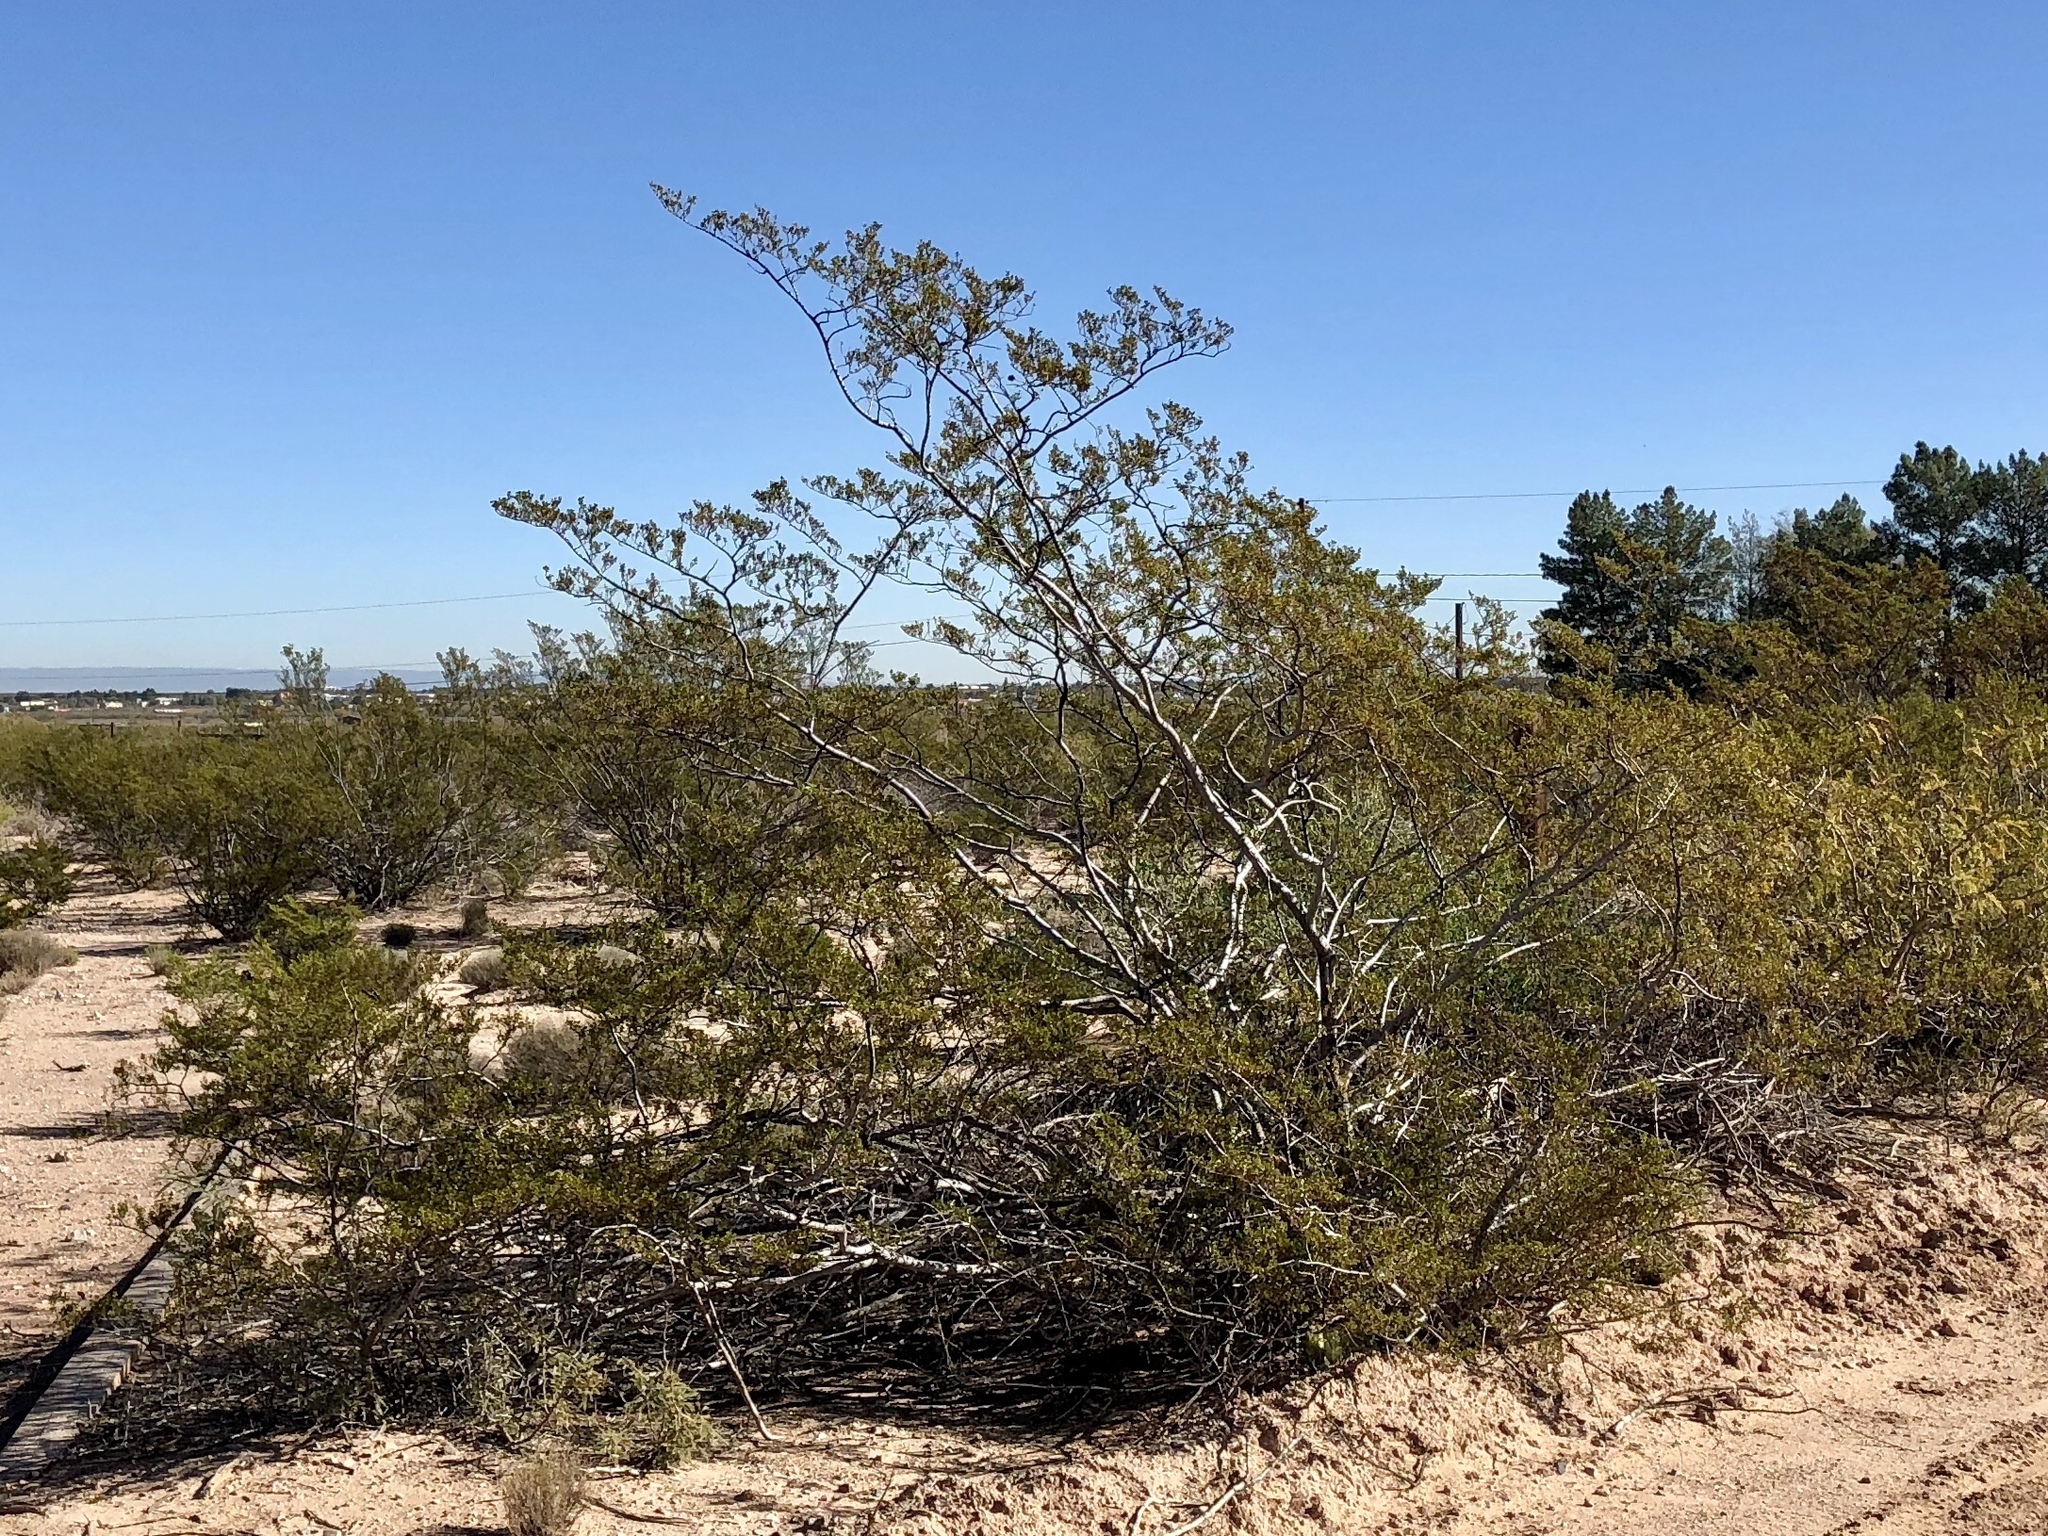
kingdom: Plantae
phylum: Tracheophyta
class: Magnoliopsida
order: Zygophyllales
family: Zygophyllaceae
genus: Larrea
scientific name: Larrea tridentata
